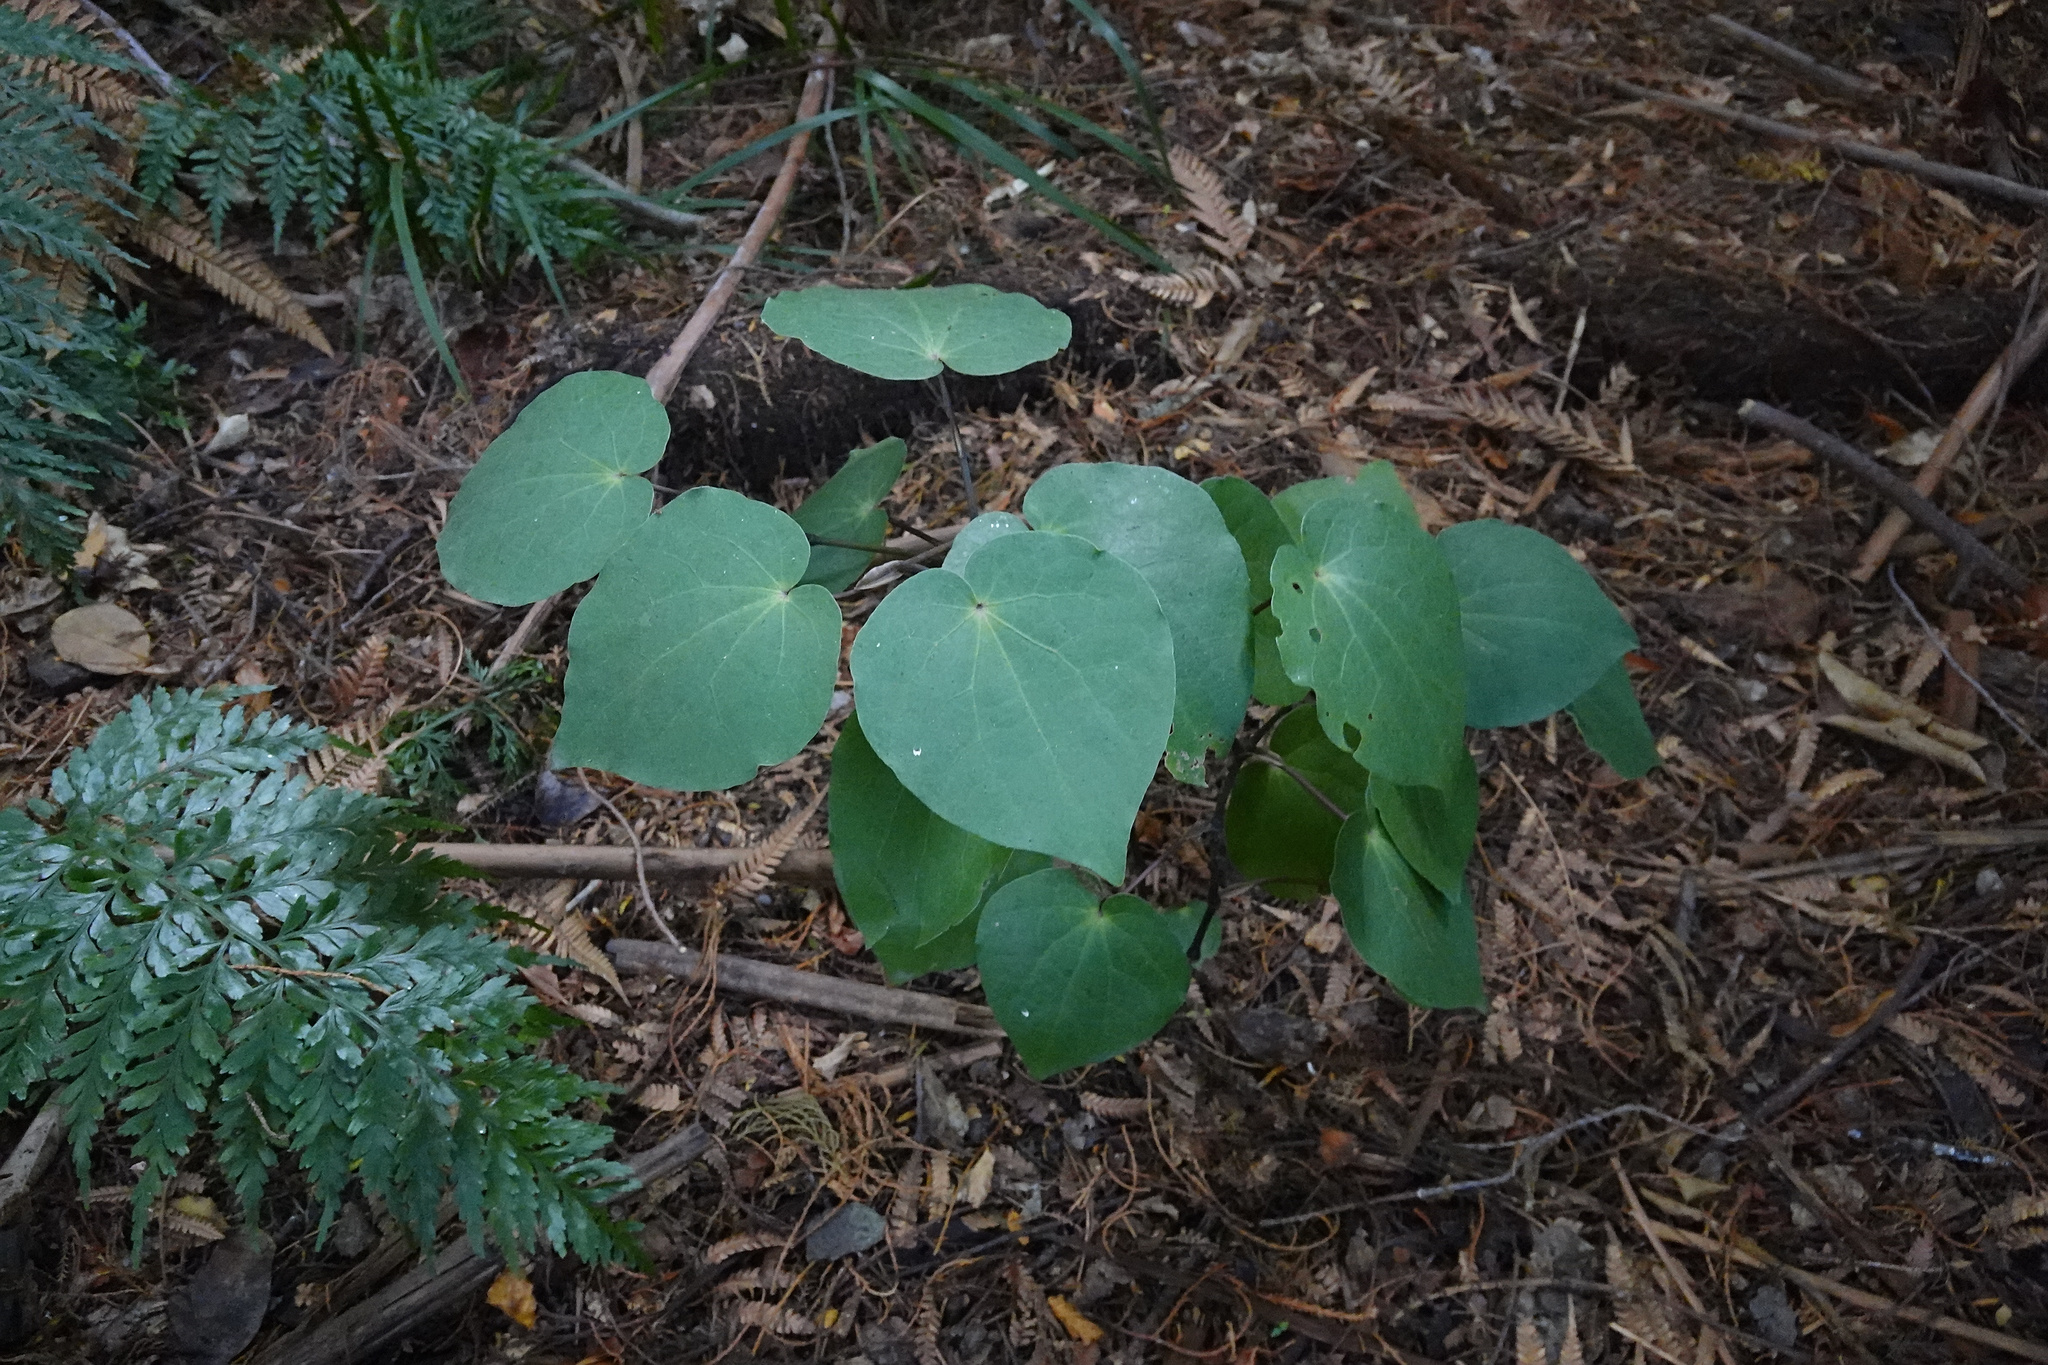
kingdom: Plantae
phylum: Tracheophyta
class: Magnoliopsida
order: Piperales
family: Piperaceae
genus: Macropiper
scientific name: Macropiper excelsum
